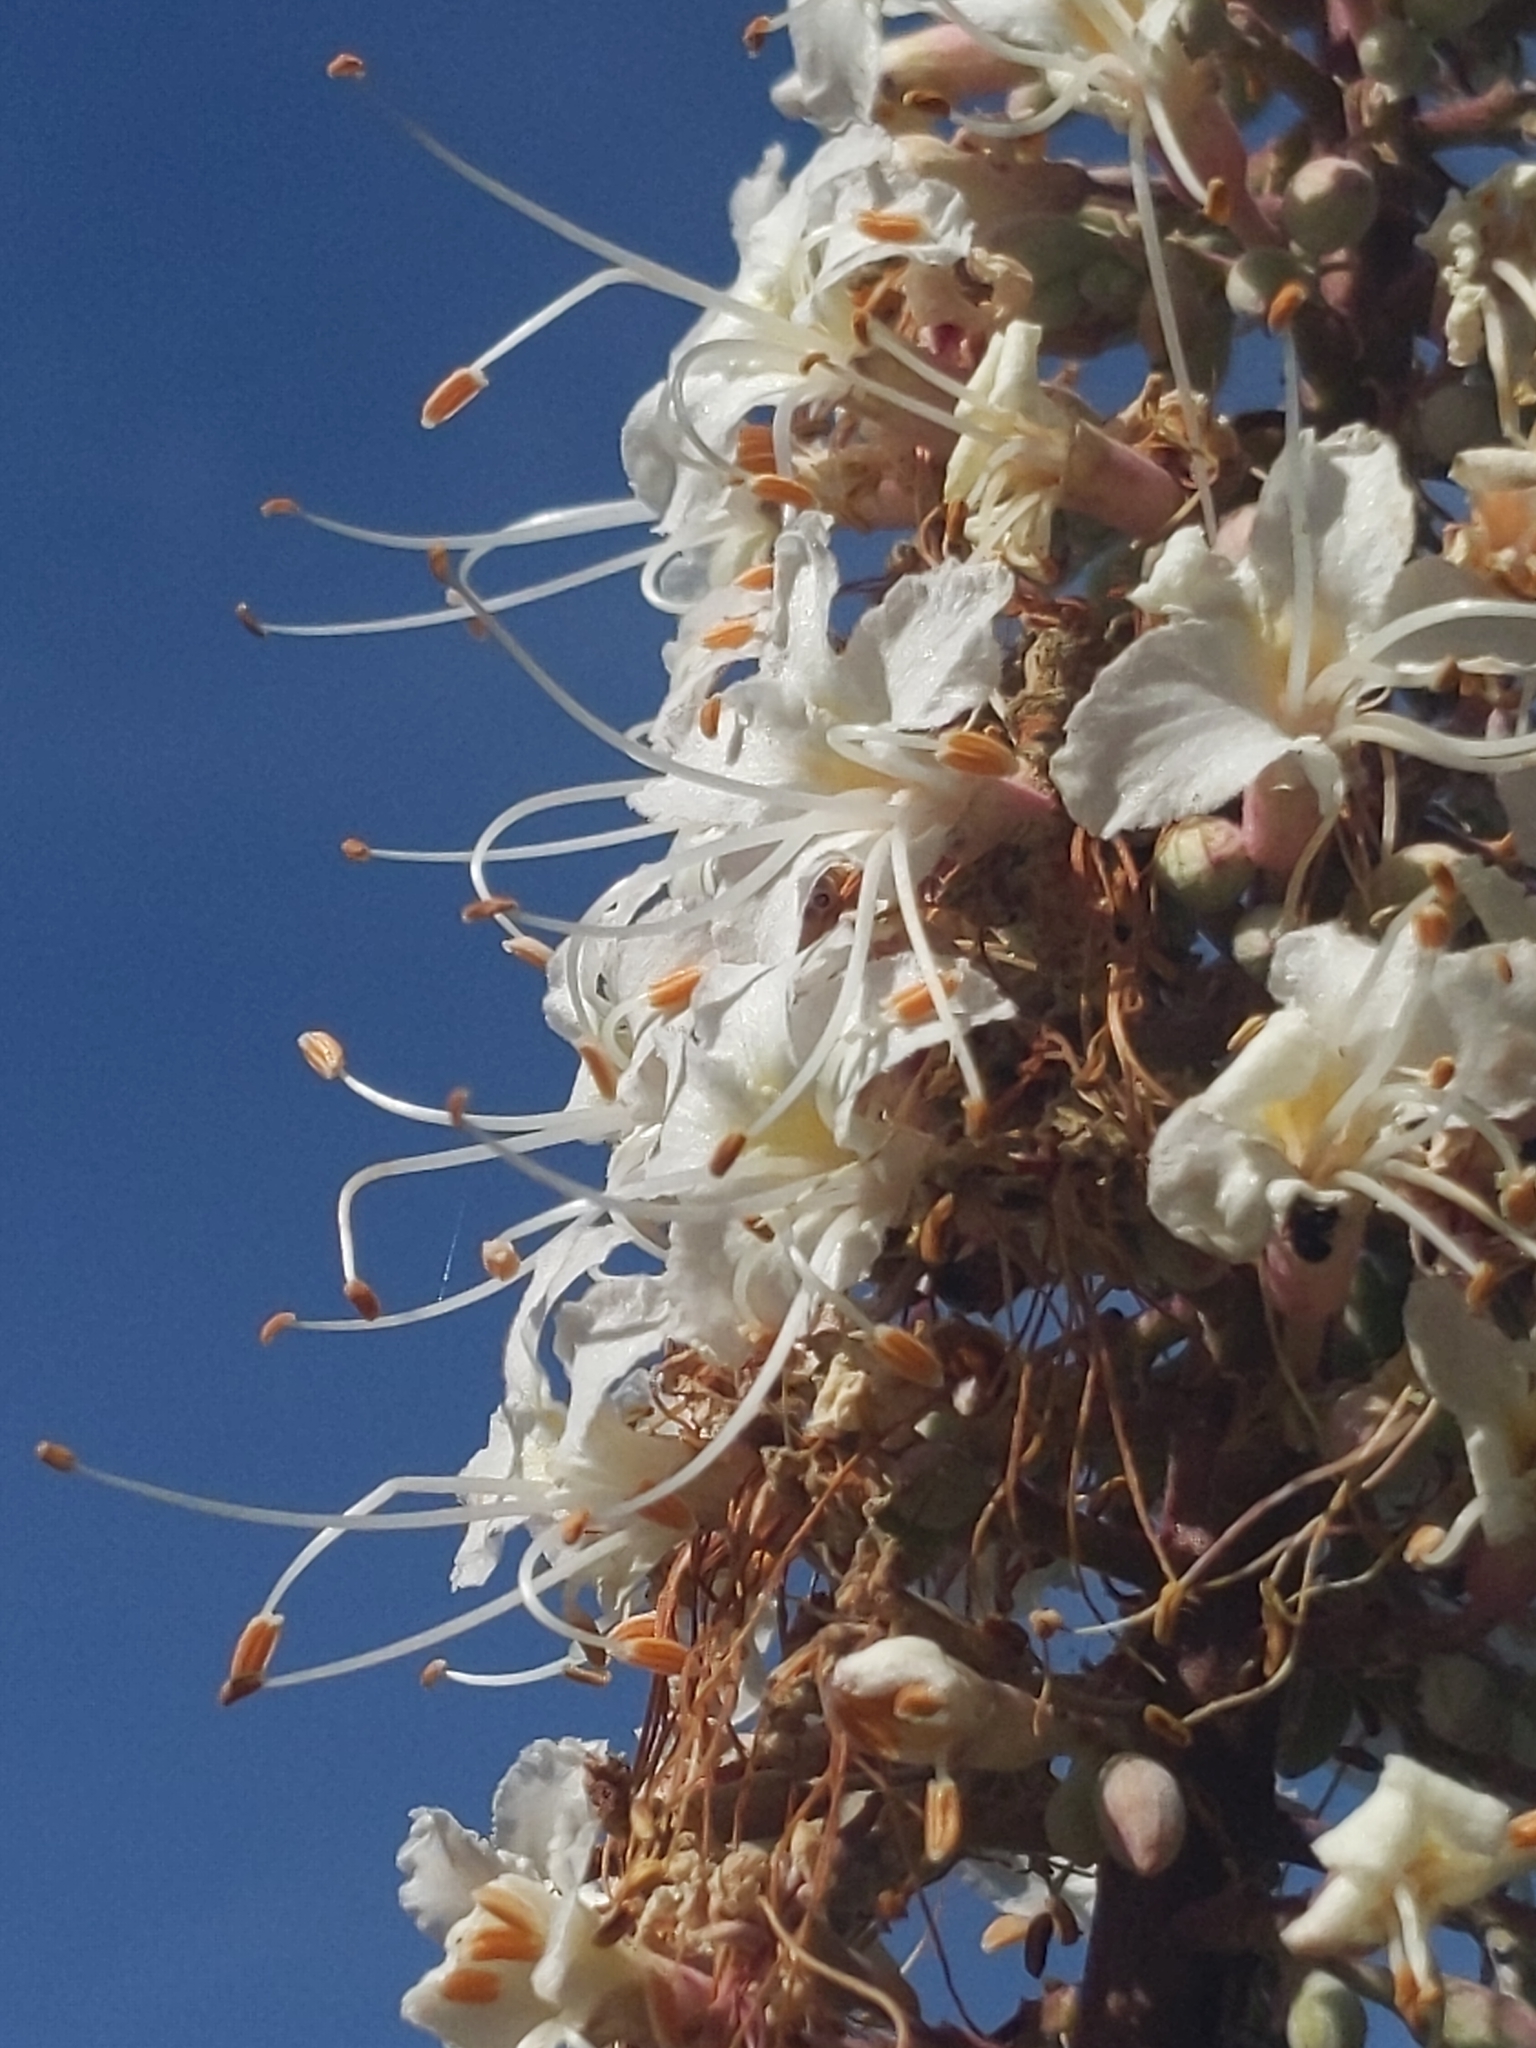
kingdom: Plantae
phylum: Tracheophyta
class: Magnoliopsida
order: Sapindales
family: Sapindaceae
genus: Aesculus
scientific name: Aesculus californica
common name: California buckeye
